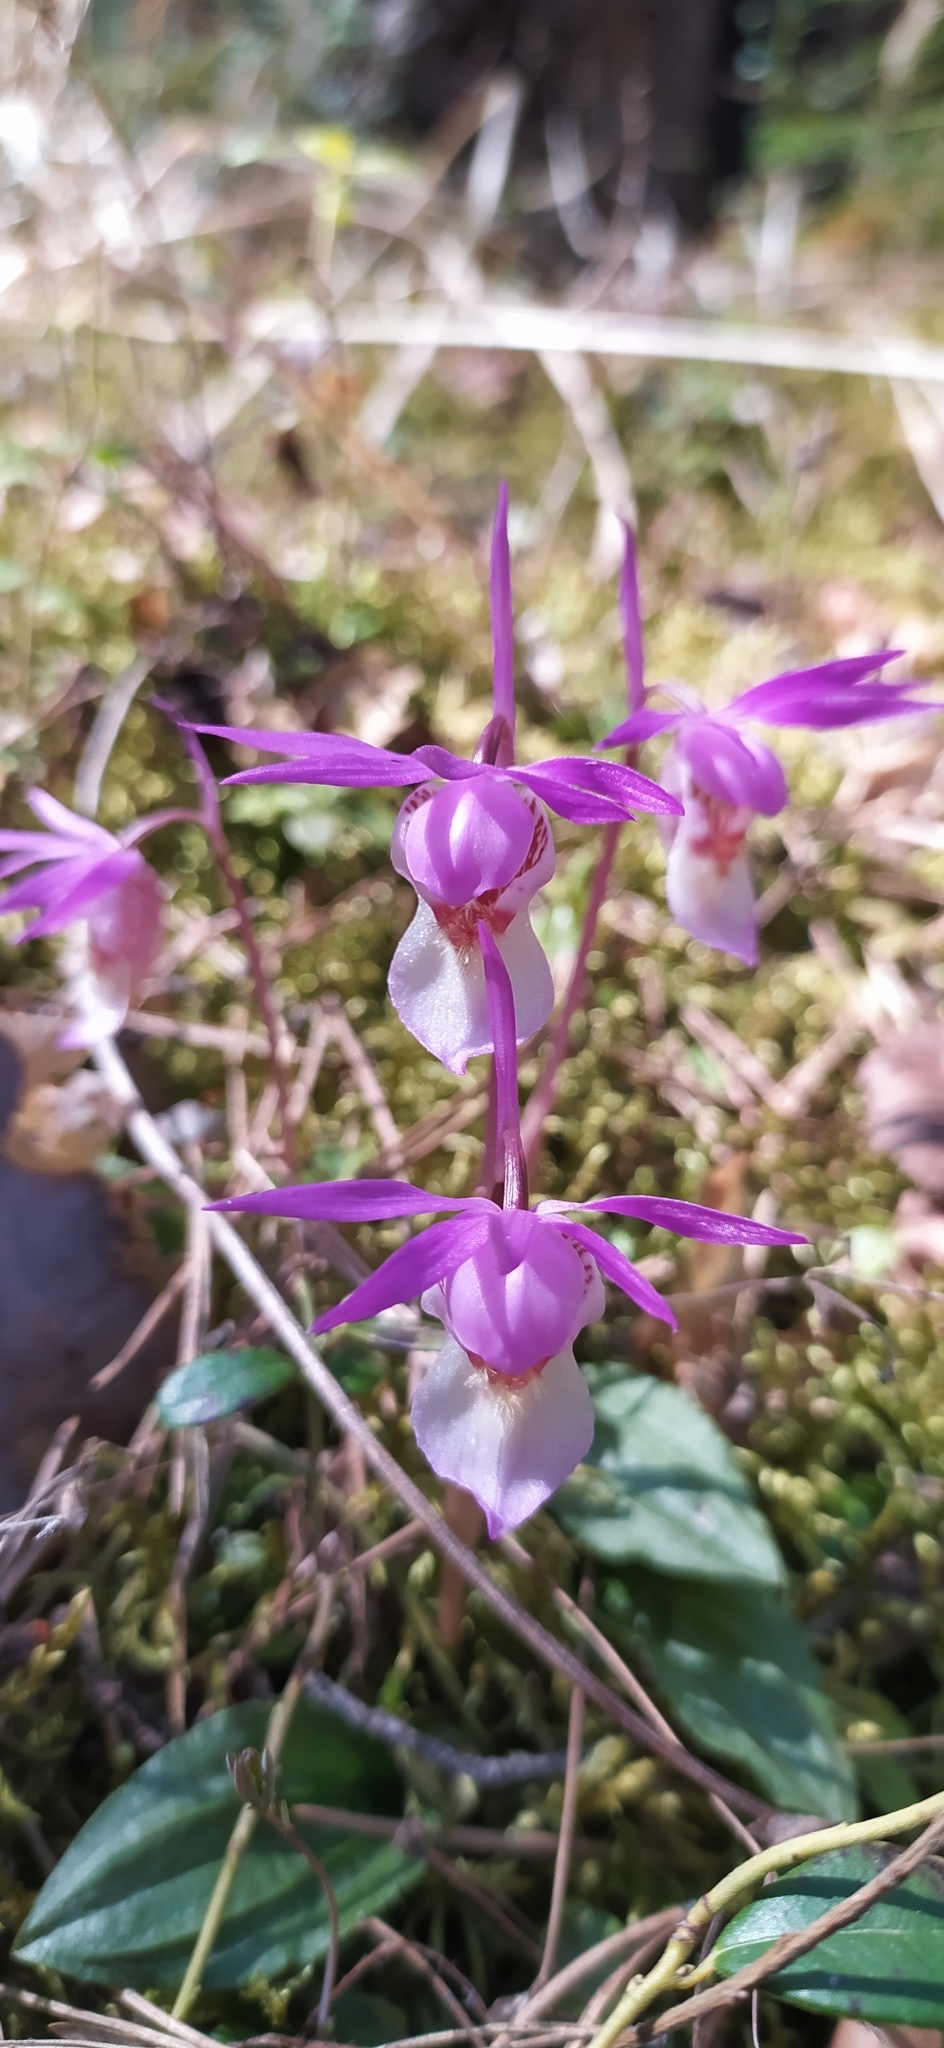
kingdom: Plantae
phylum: Tracheophyta
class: Liliopsida
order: Asparagales
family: Orchidaceae
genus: Calypso
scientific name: Calypso bulbosa
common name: Calypso
